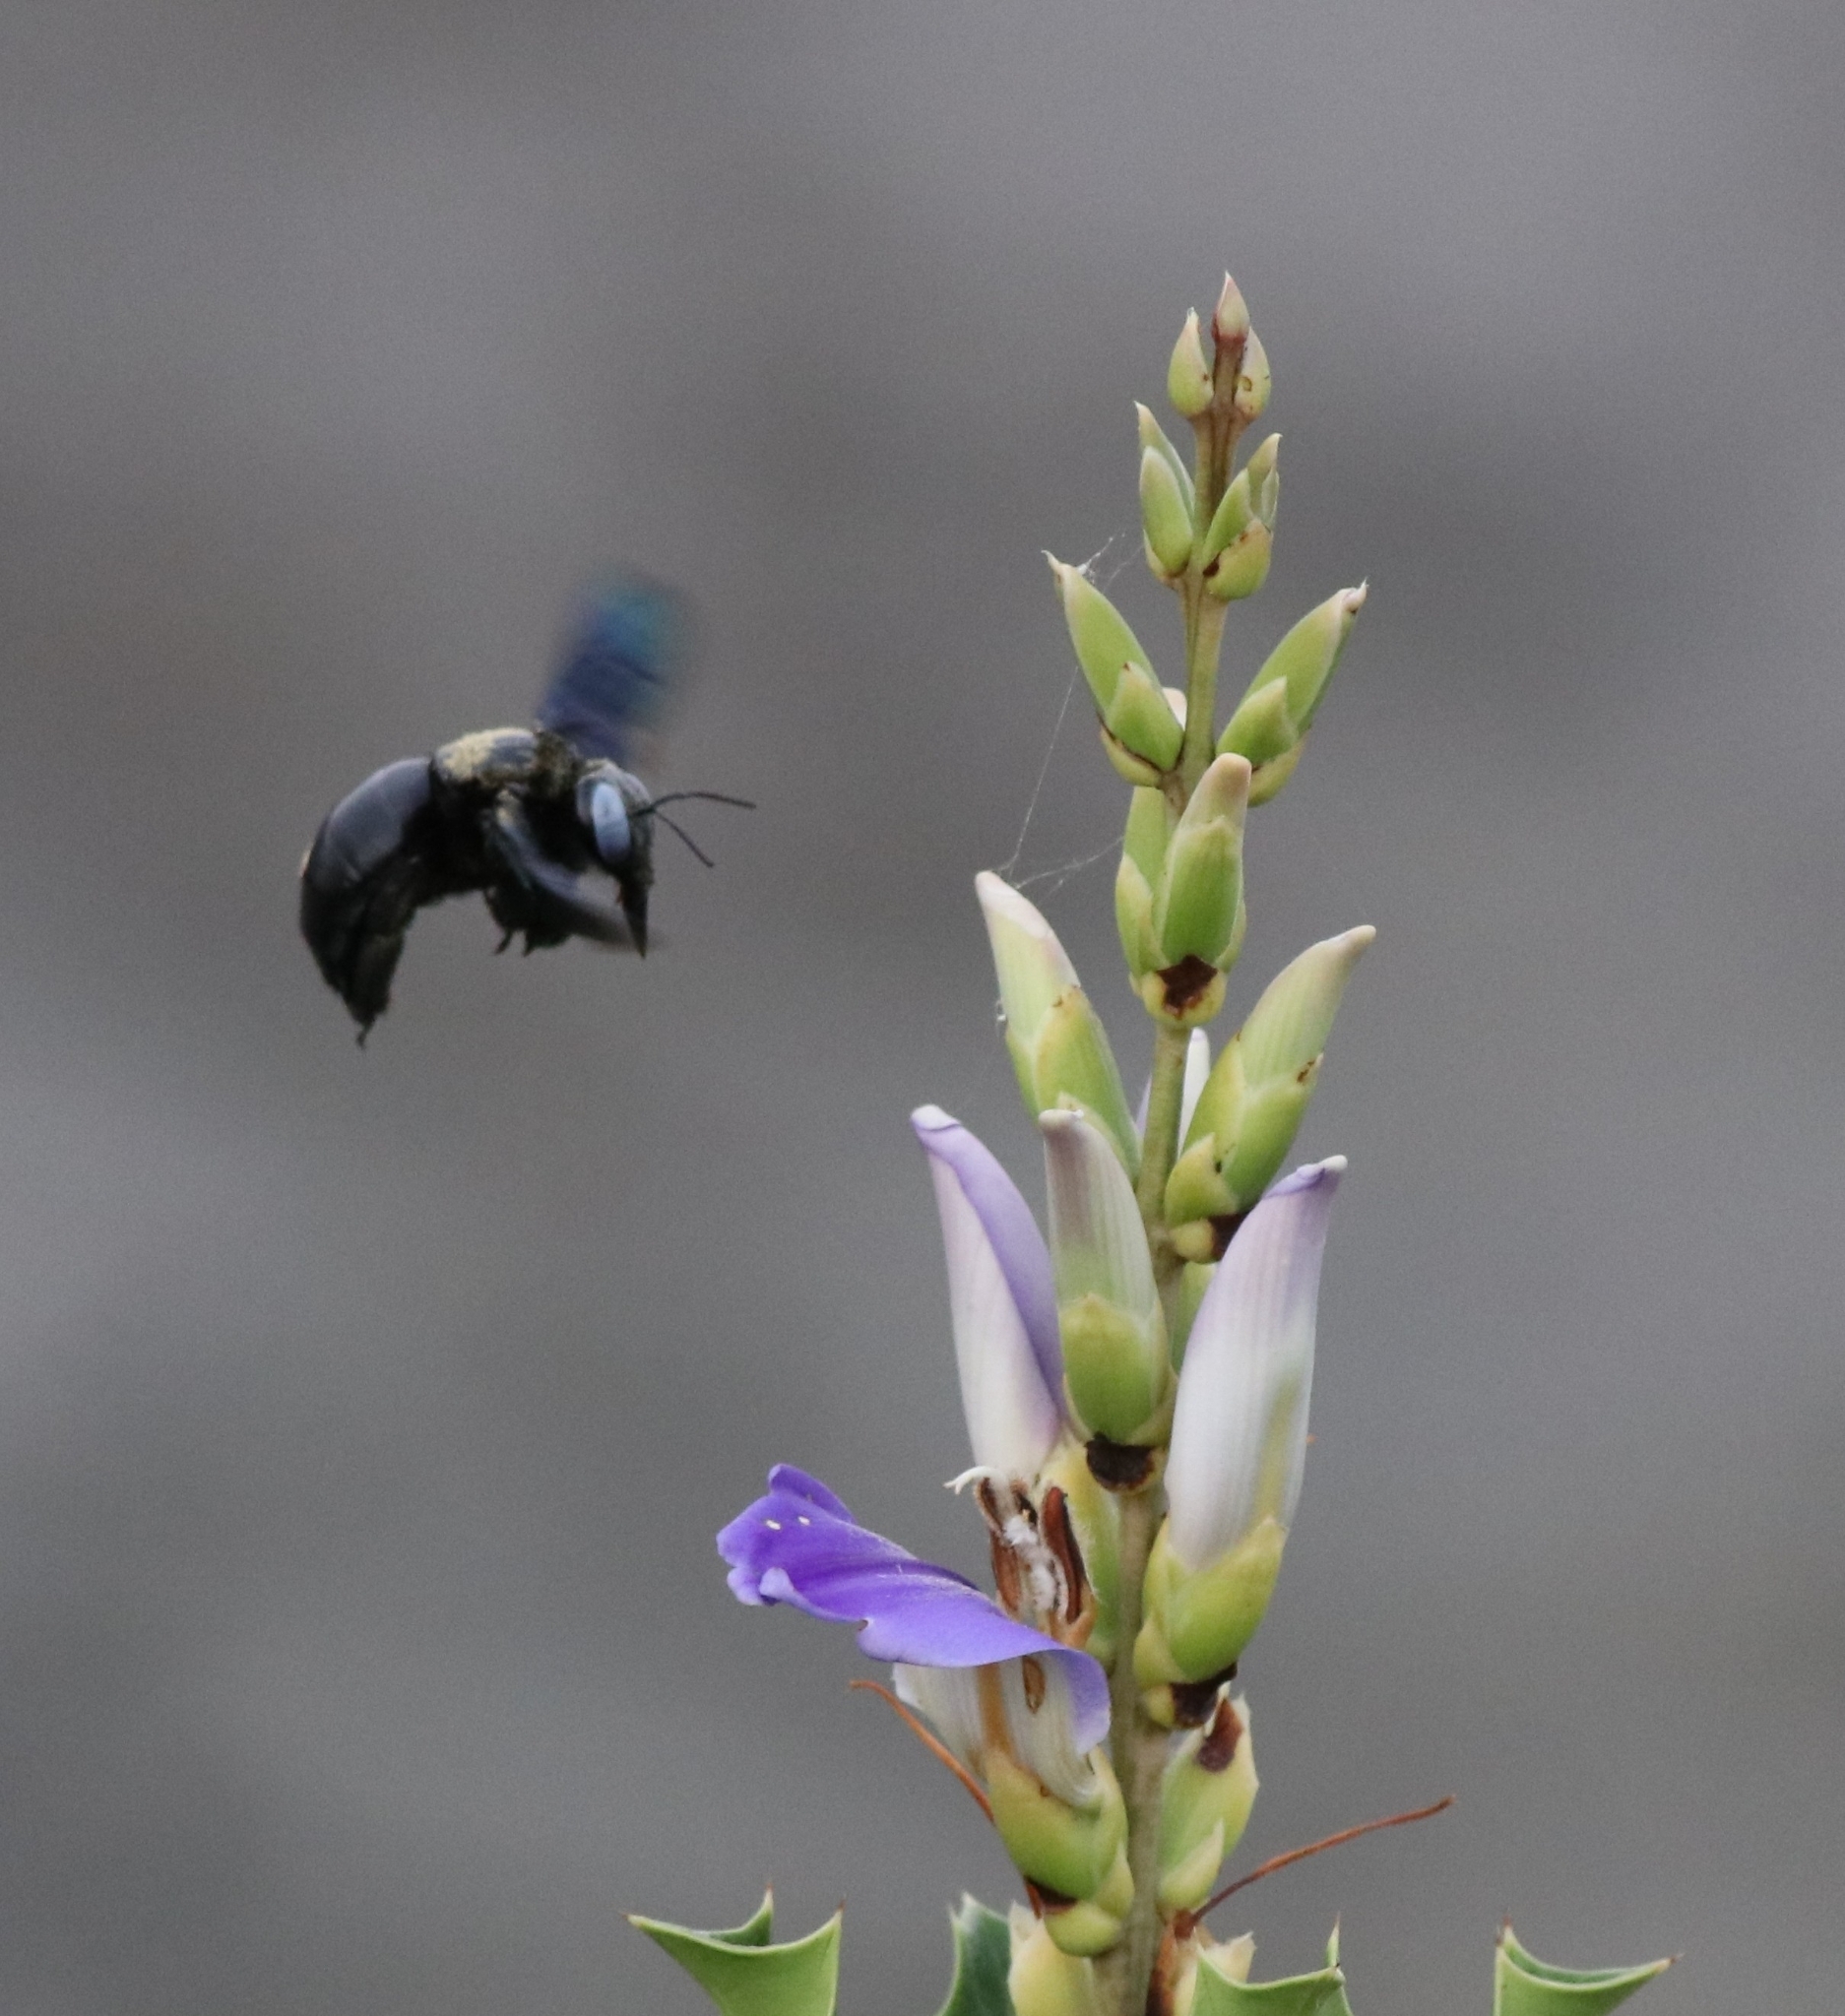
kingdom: Animalia
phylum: Arthropoda
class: Insecta
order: Hymenoptera
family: Apidae
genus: Xylocopa
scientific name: Xylocopa tenuiscapa
